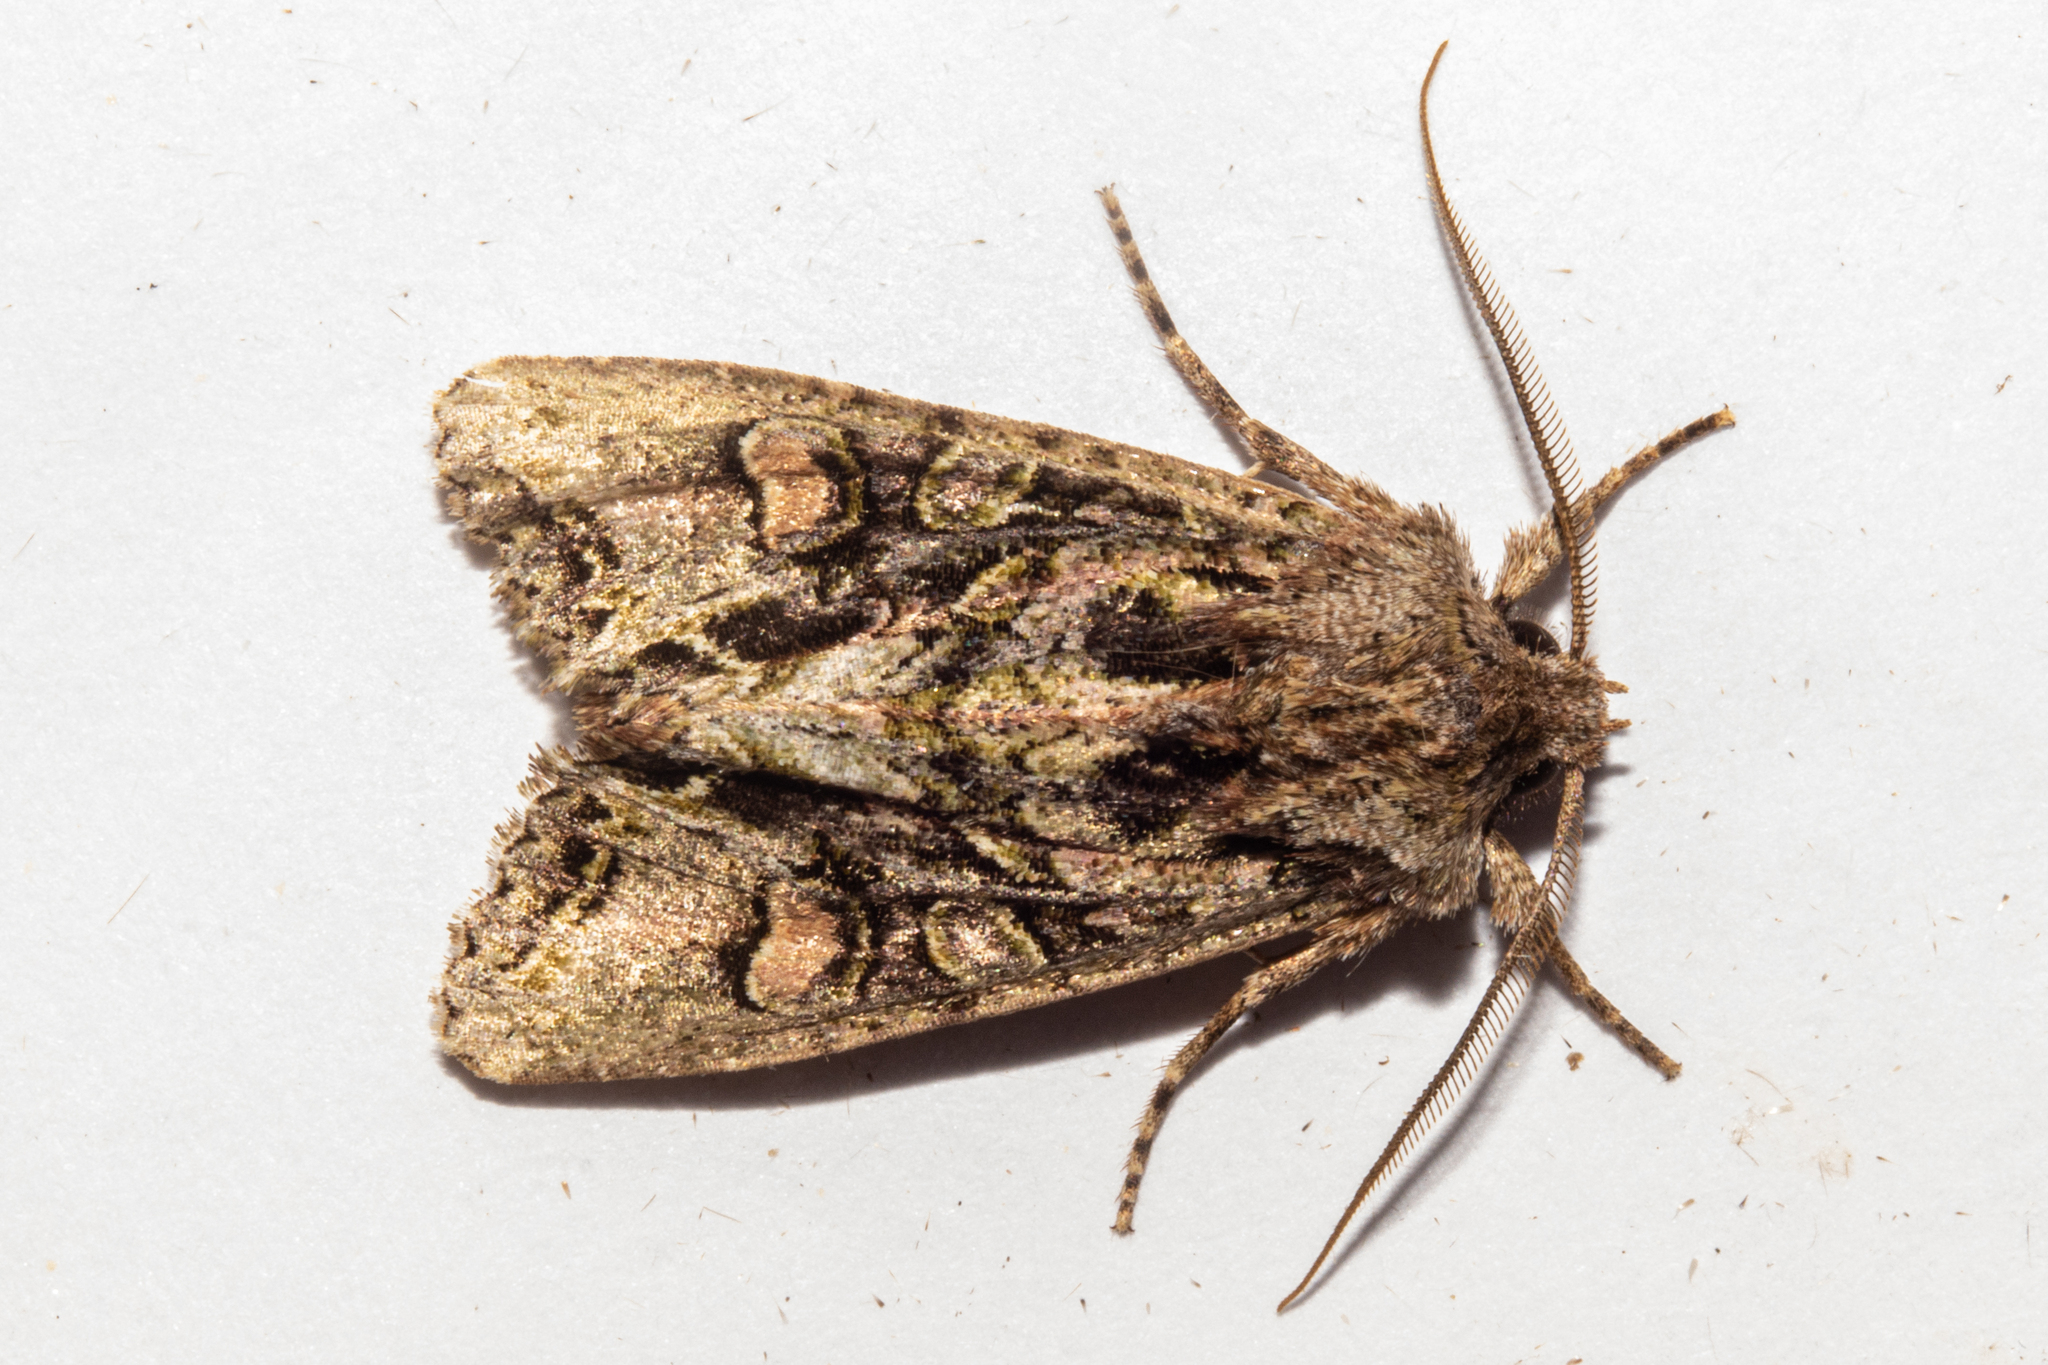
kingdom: Animalia
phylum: Arthropoda
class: Insecta
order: Lepidoptera
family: Noctuidae
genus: Ichneutica
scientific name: Ichneutica insignis
